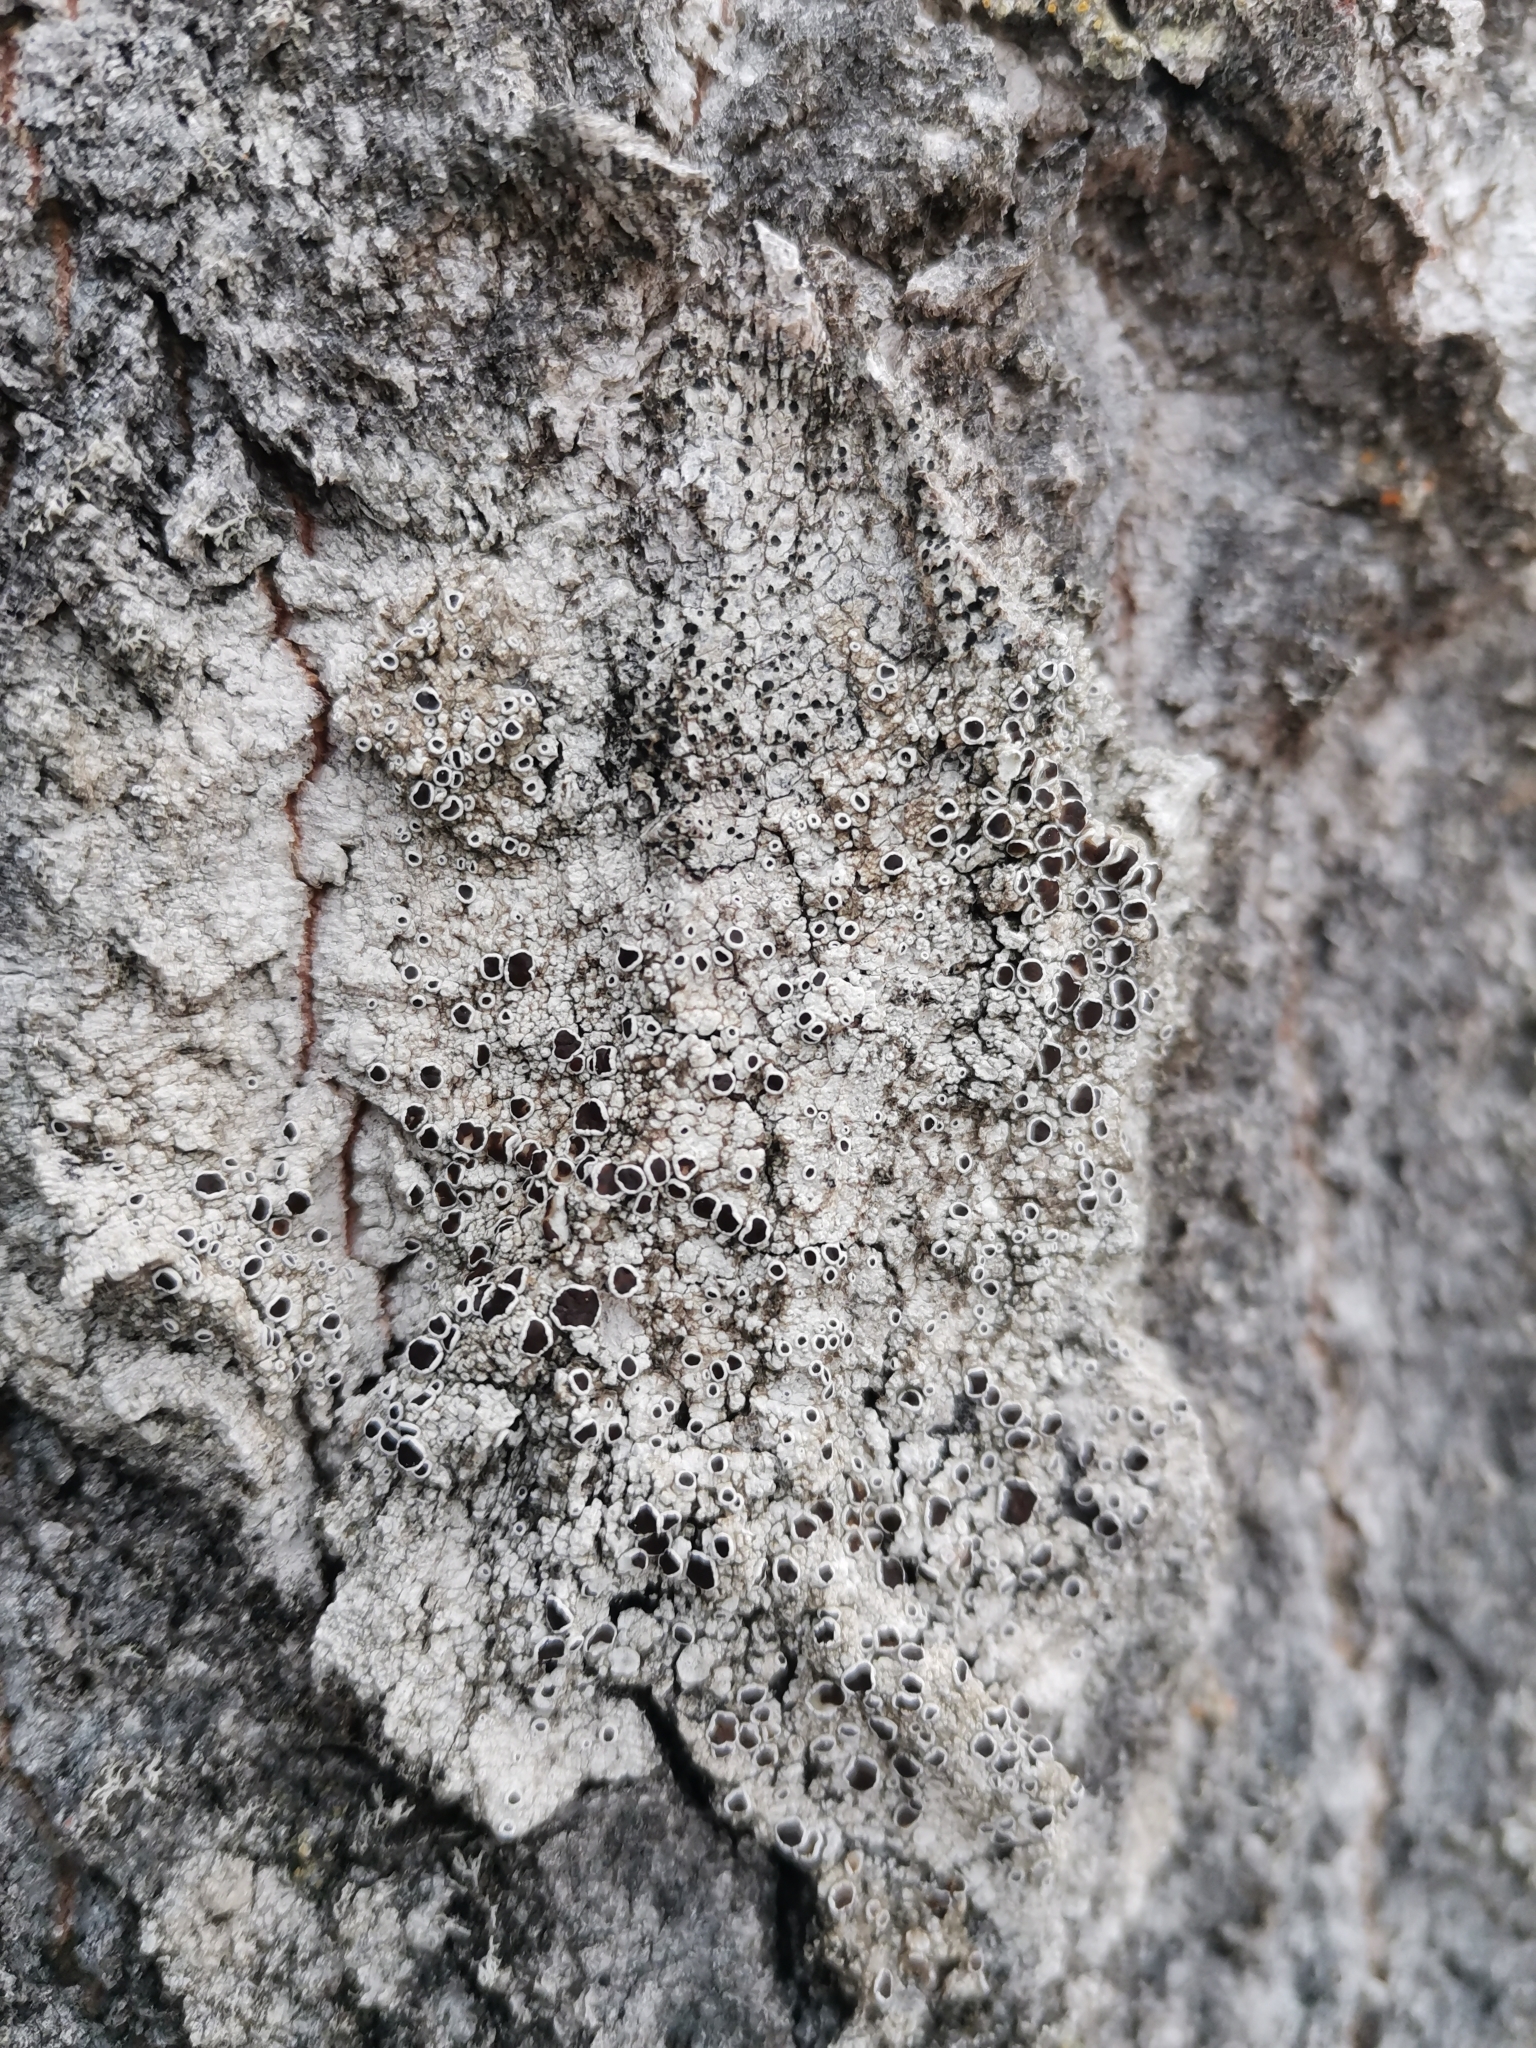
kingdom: Fungi
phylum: Ascomycota
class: Lecanoromycetes
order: Lecanorales
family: Lecanoraceae
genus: Lecanora
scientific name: Lecanora albella
